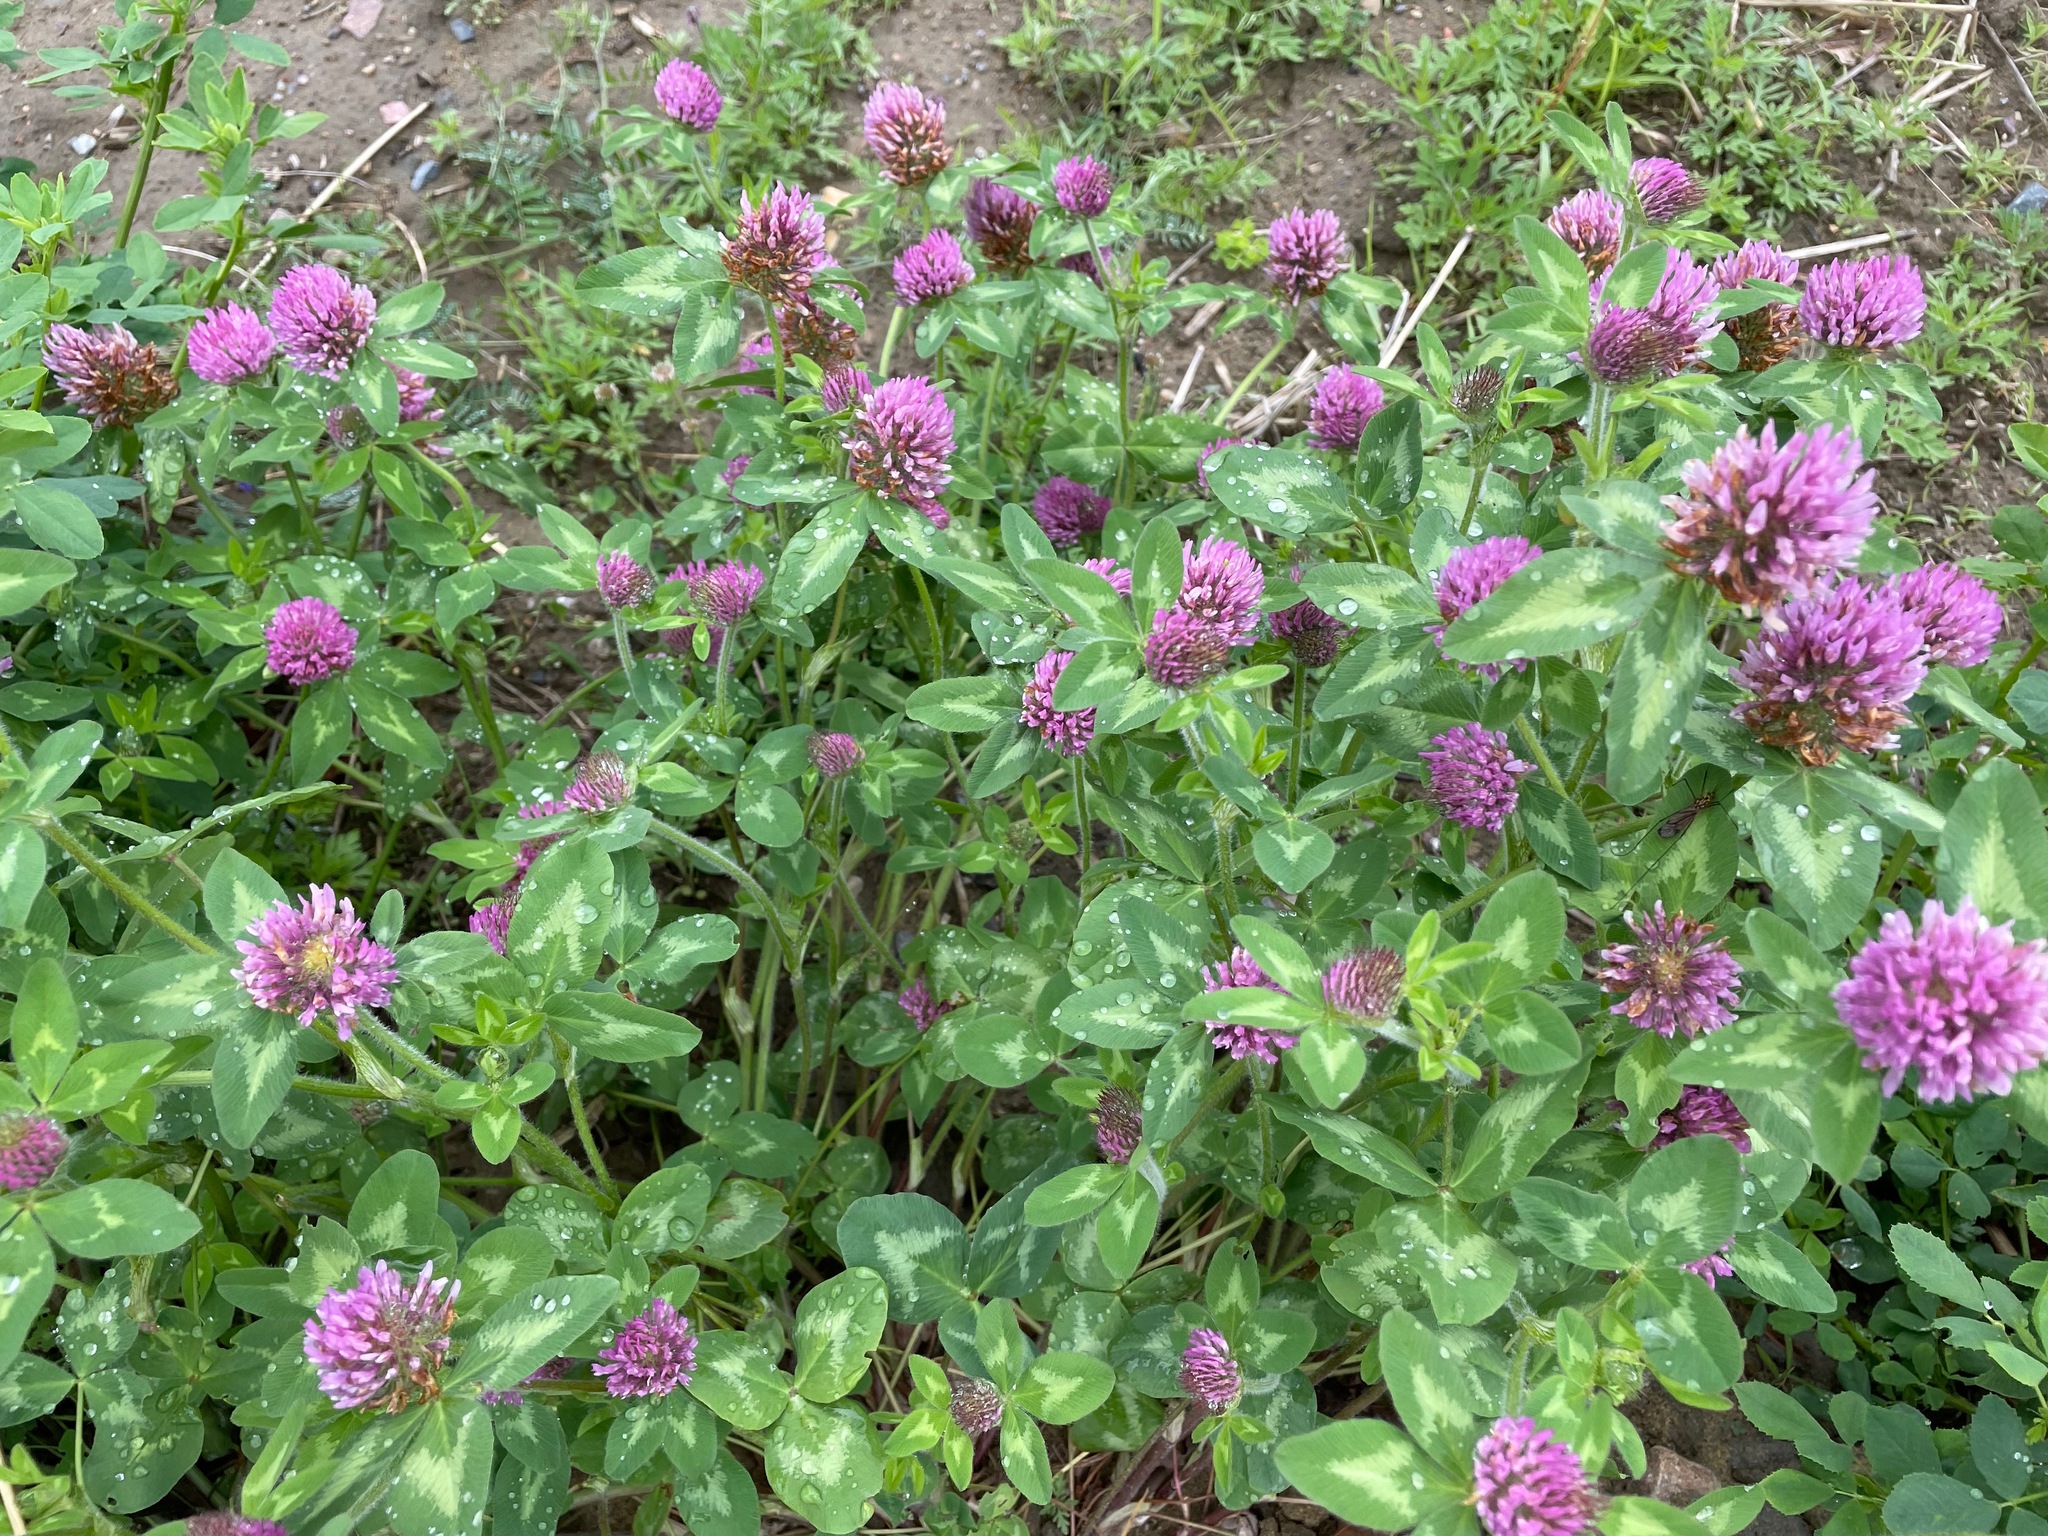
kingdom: Plantae
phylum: Tracheophyta
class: Magnoliopsida
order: Fabales
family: Fabaceae
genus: Trifolium
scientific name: Trifolium pratense
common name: Red clover
